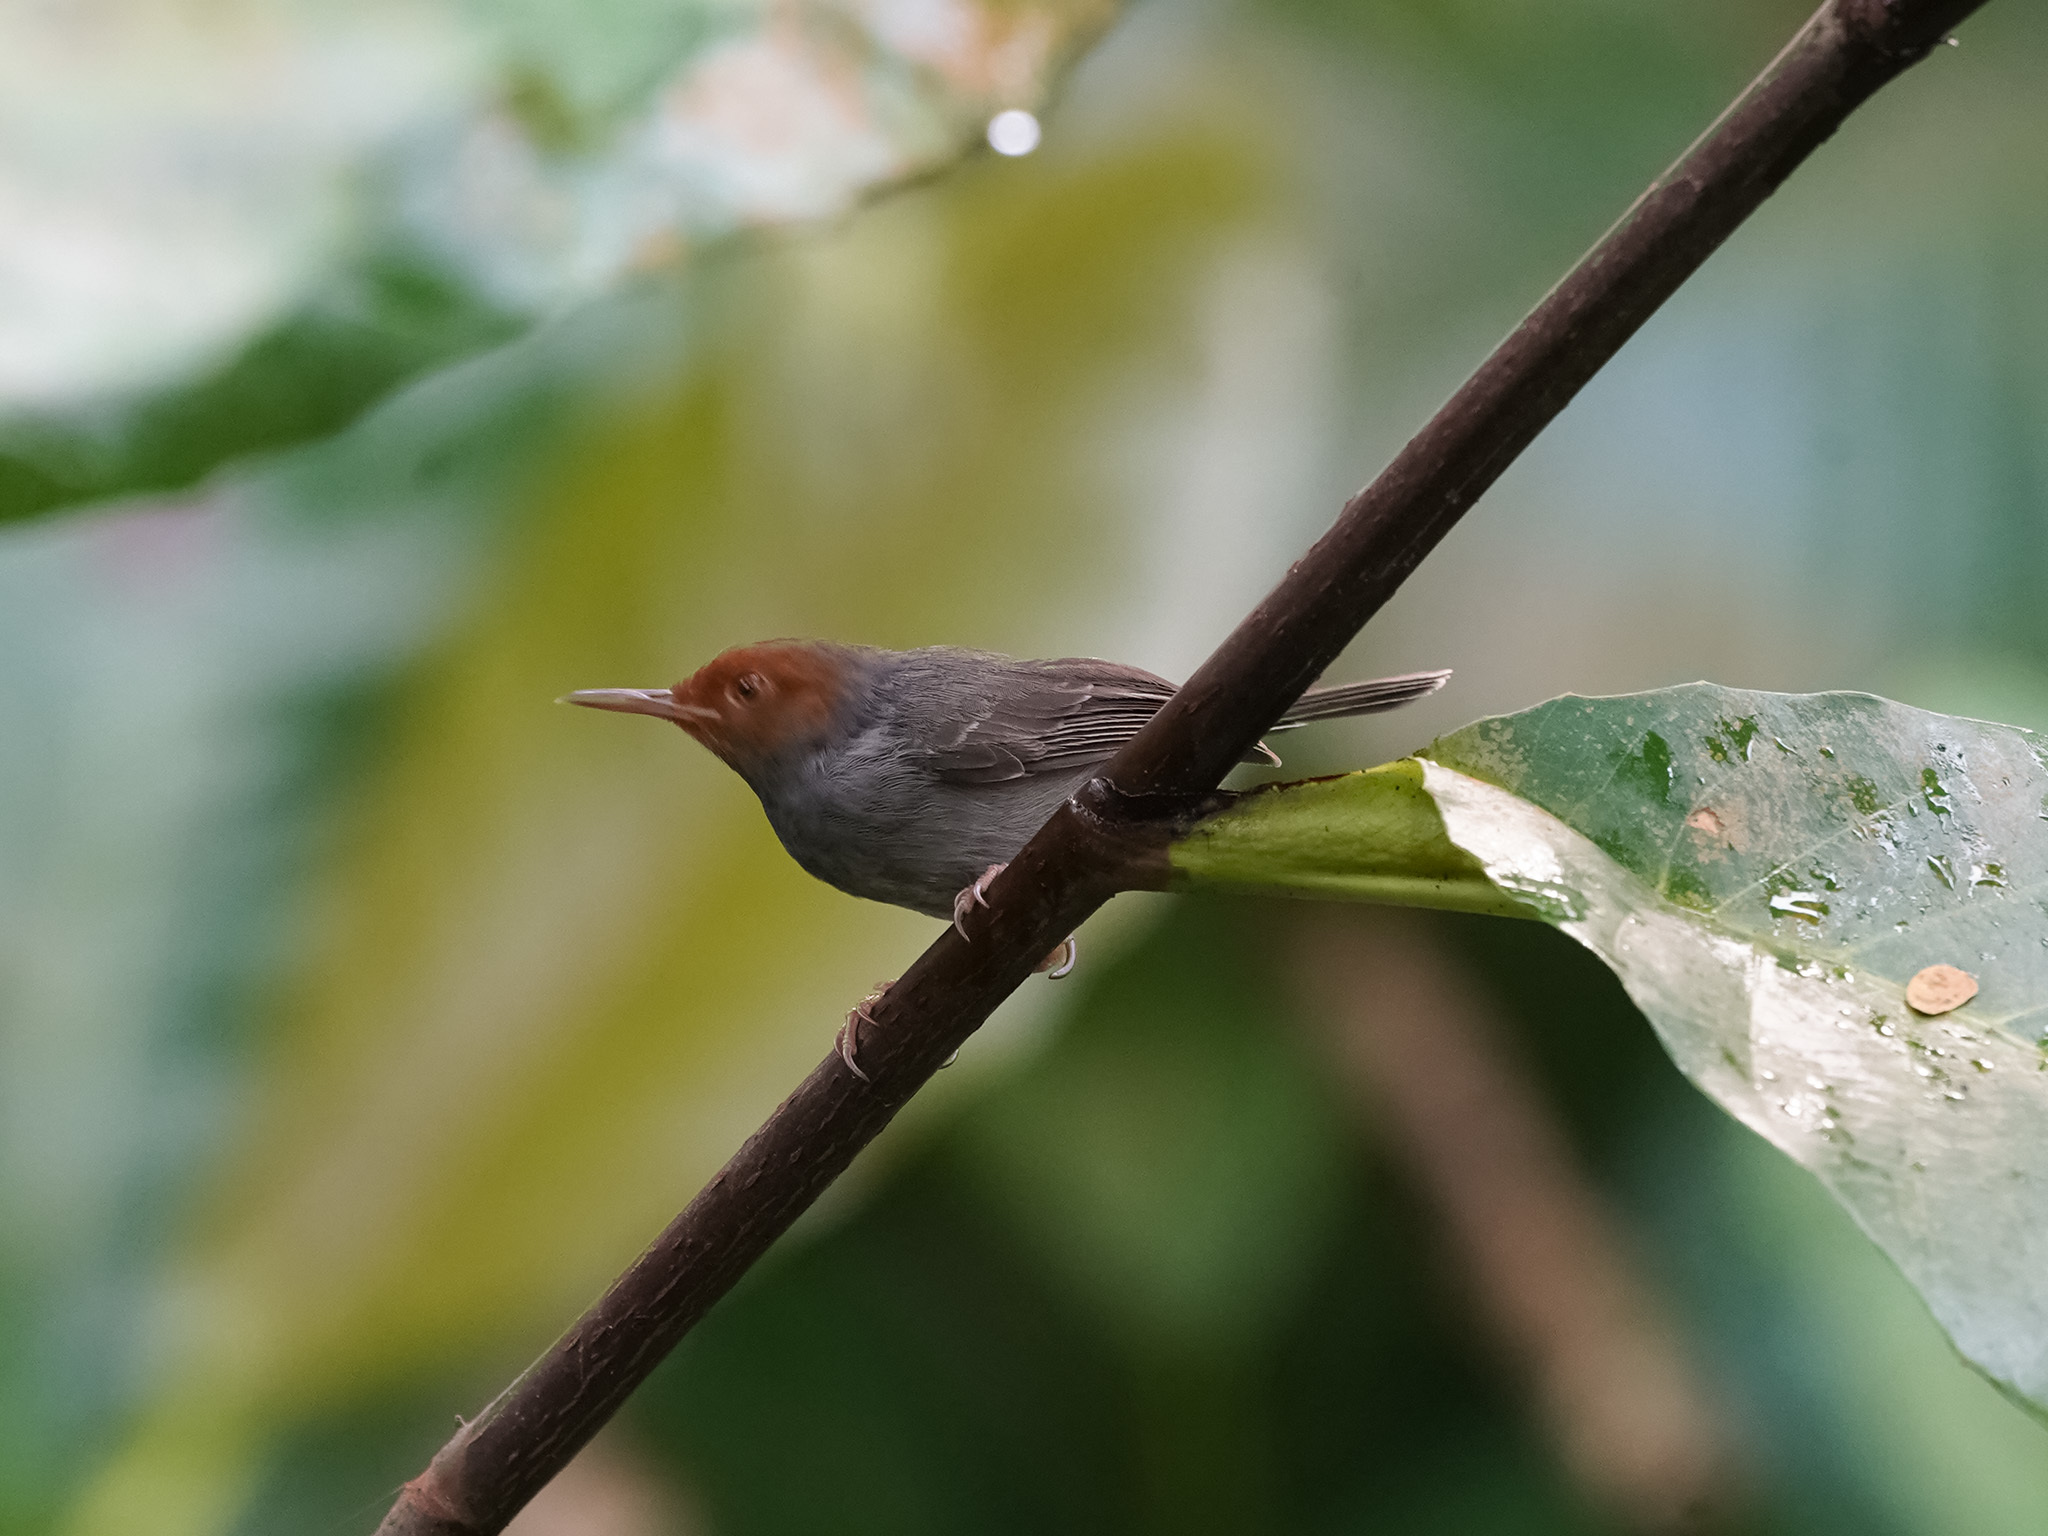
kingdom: Animalia
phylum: Chordata
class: Aves
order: Passeriformes
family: Cisticolidae
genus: Orthotomus
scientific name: Orthotomus ruficeps
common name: Ashy tailorbird
